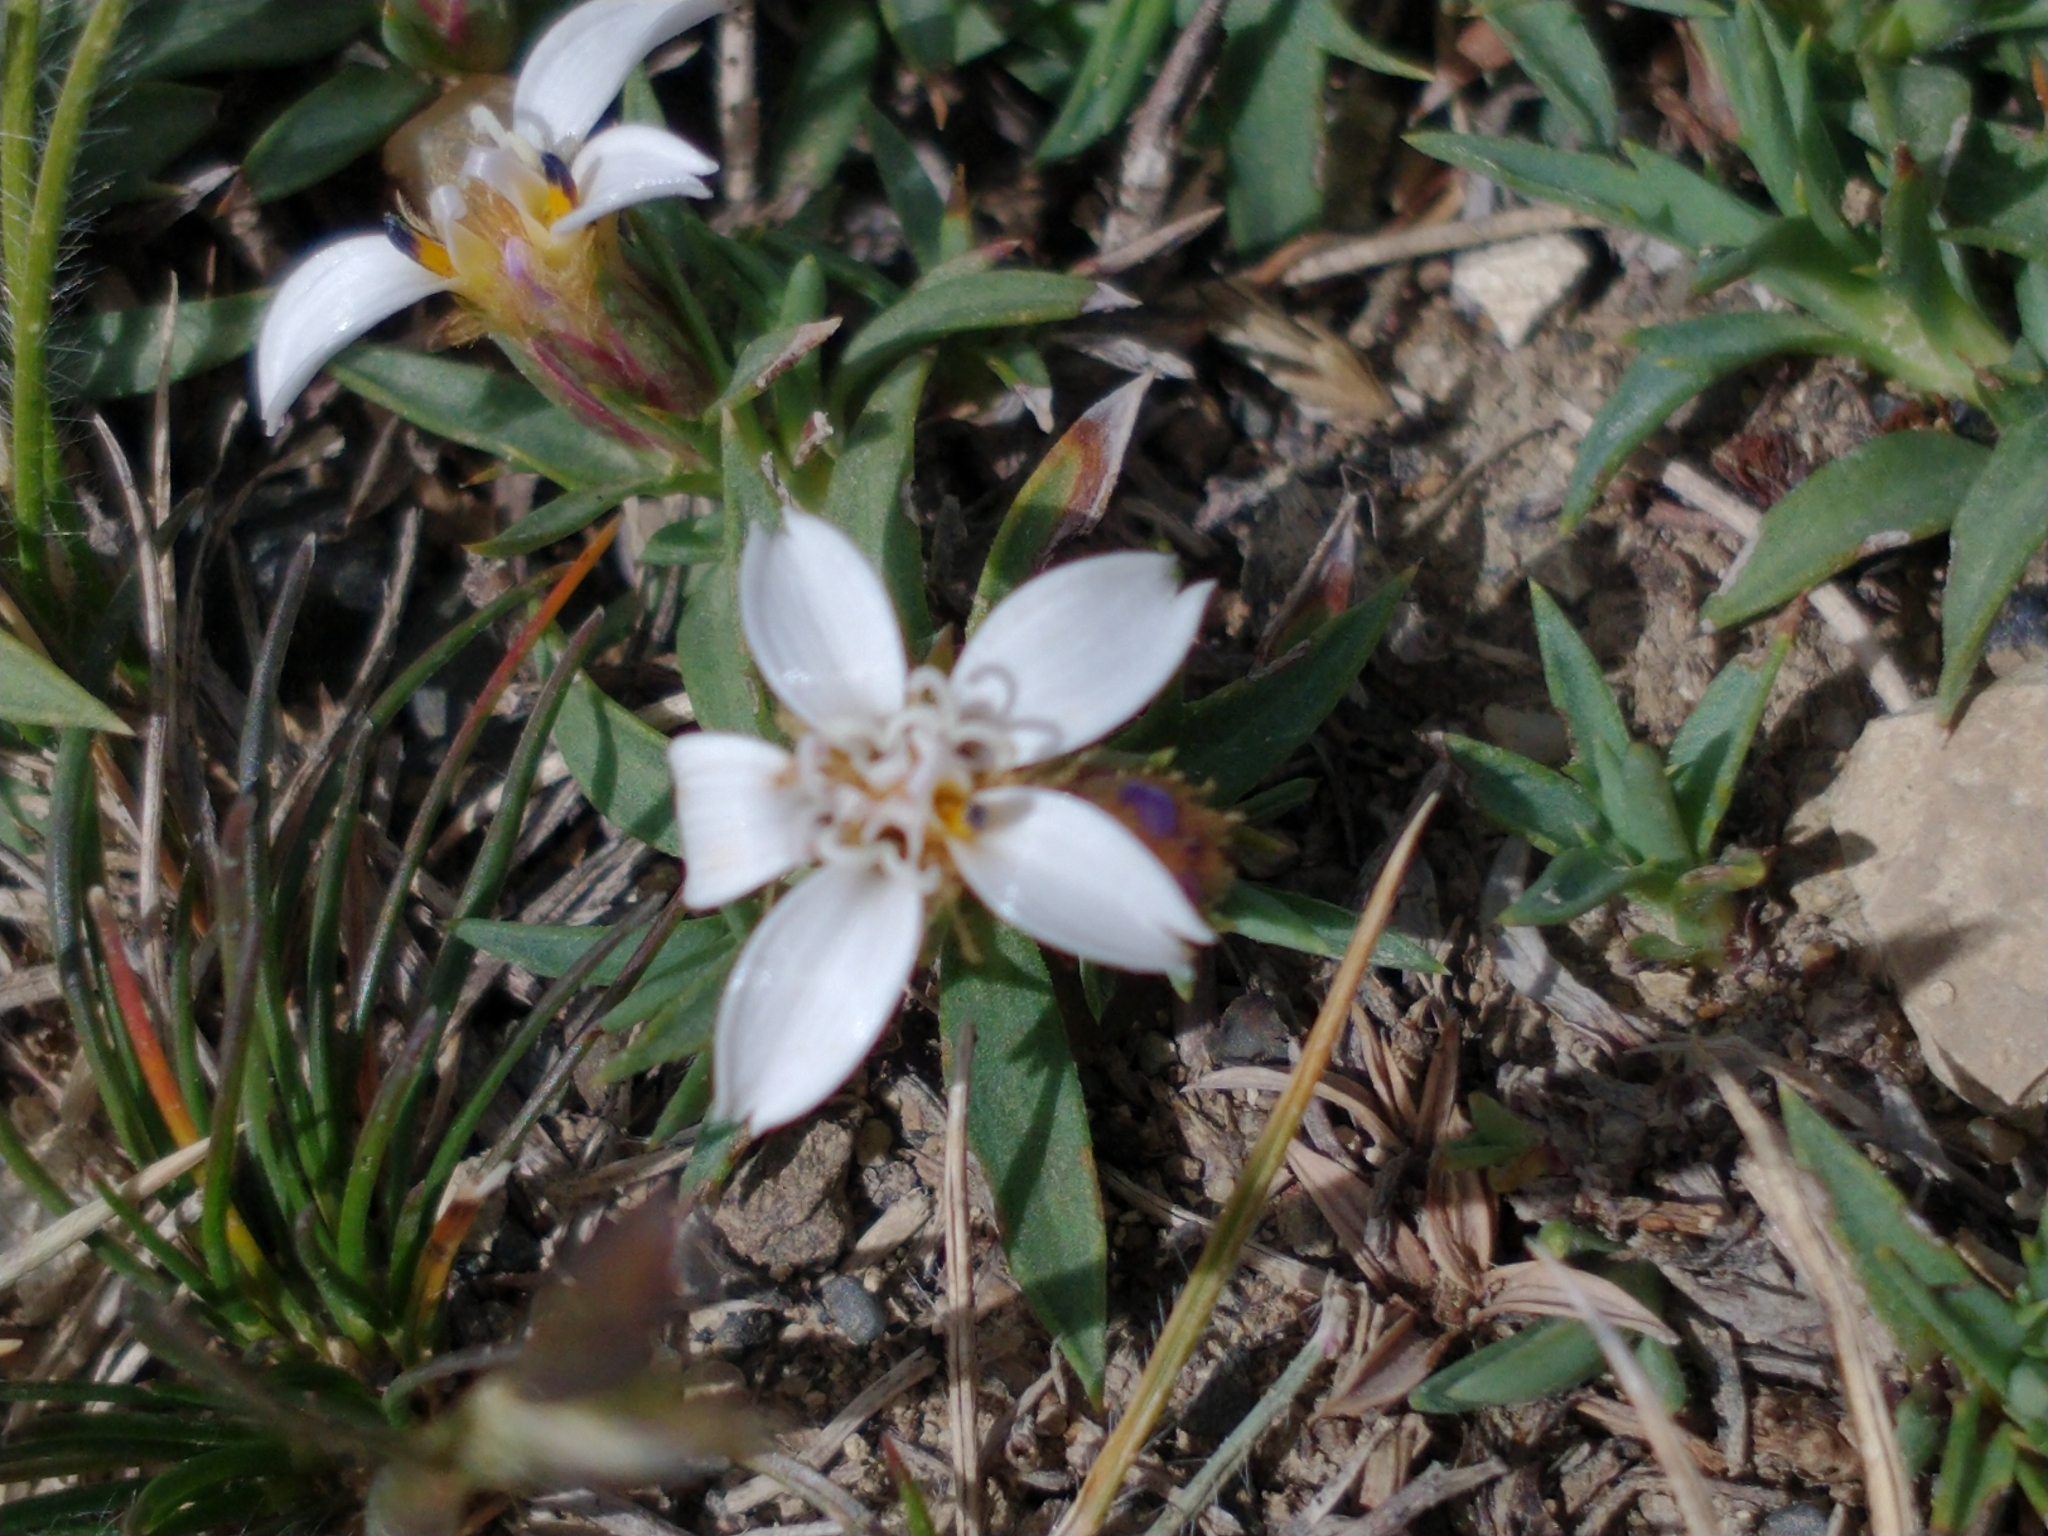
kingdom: Plantae
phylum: Tracheophyta
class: Magnoliopsida
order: Asterales
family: Asteraceae
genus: Nassauvia
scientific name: Nassauvia aculeata
